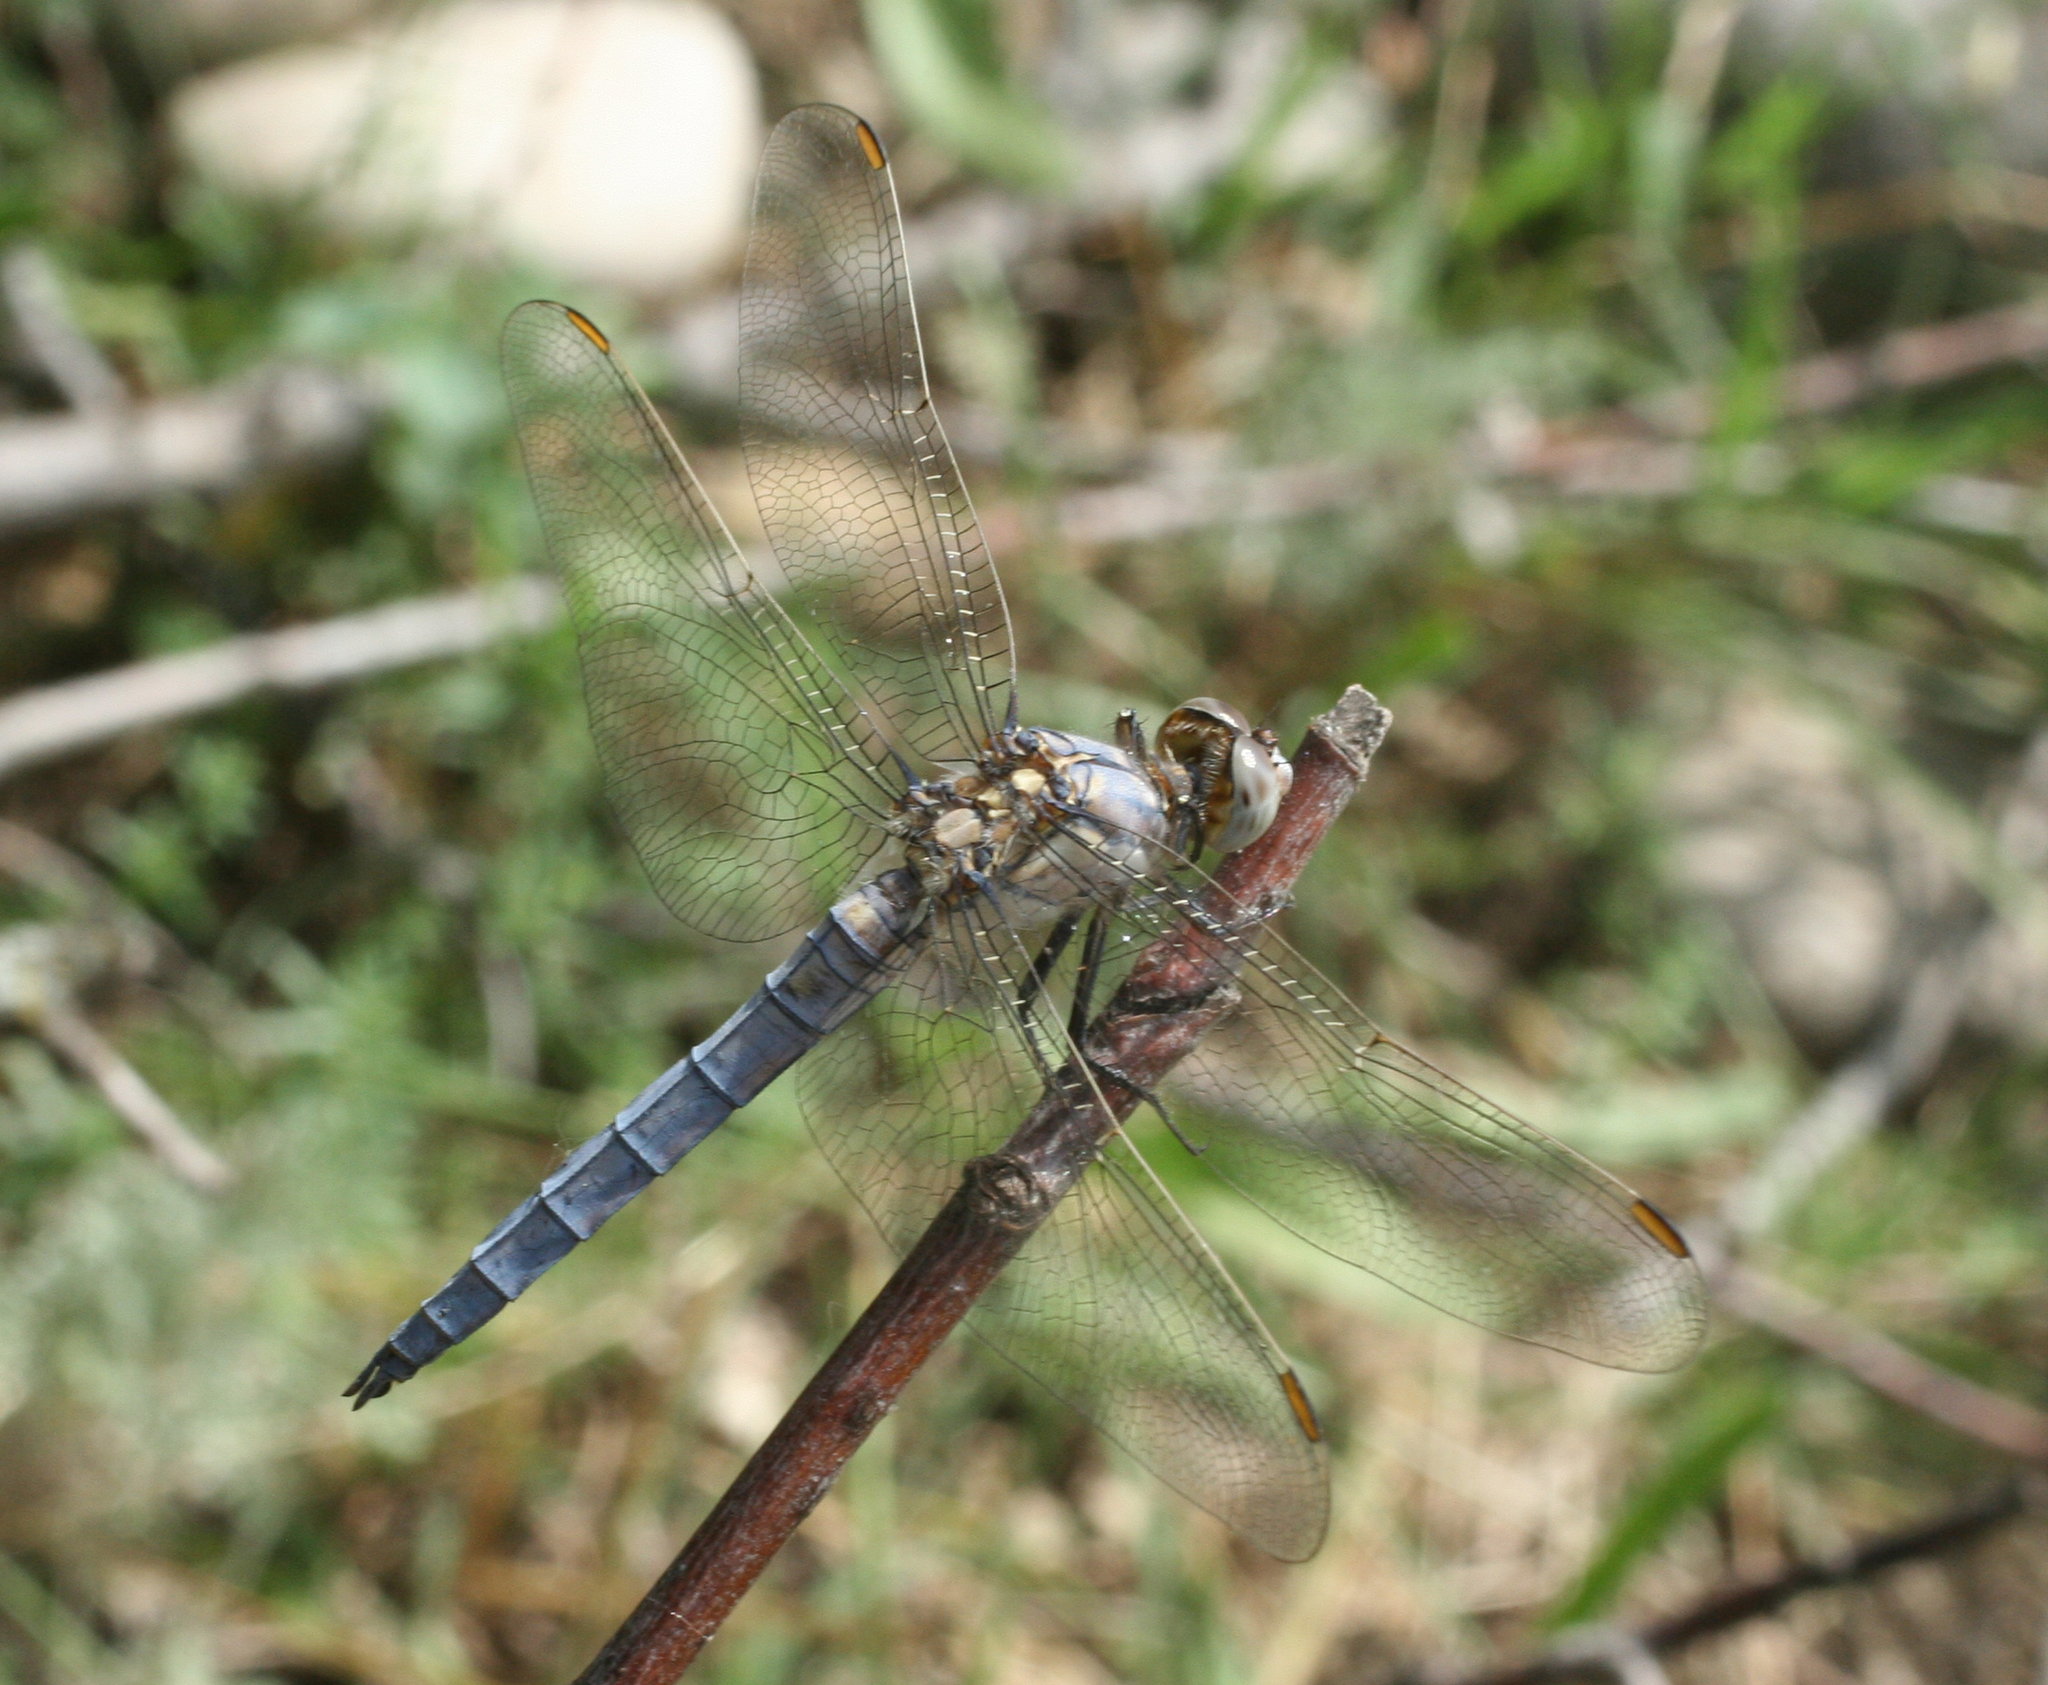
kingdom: Animalia
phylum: Arthropoda
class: Insecta
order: Odonata
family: Libellulidae
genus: Orthetrum
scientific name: Orthetrum brunneum
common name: Southern skimmer
